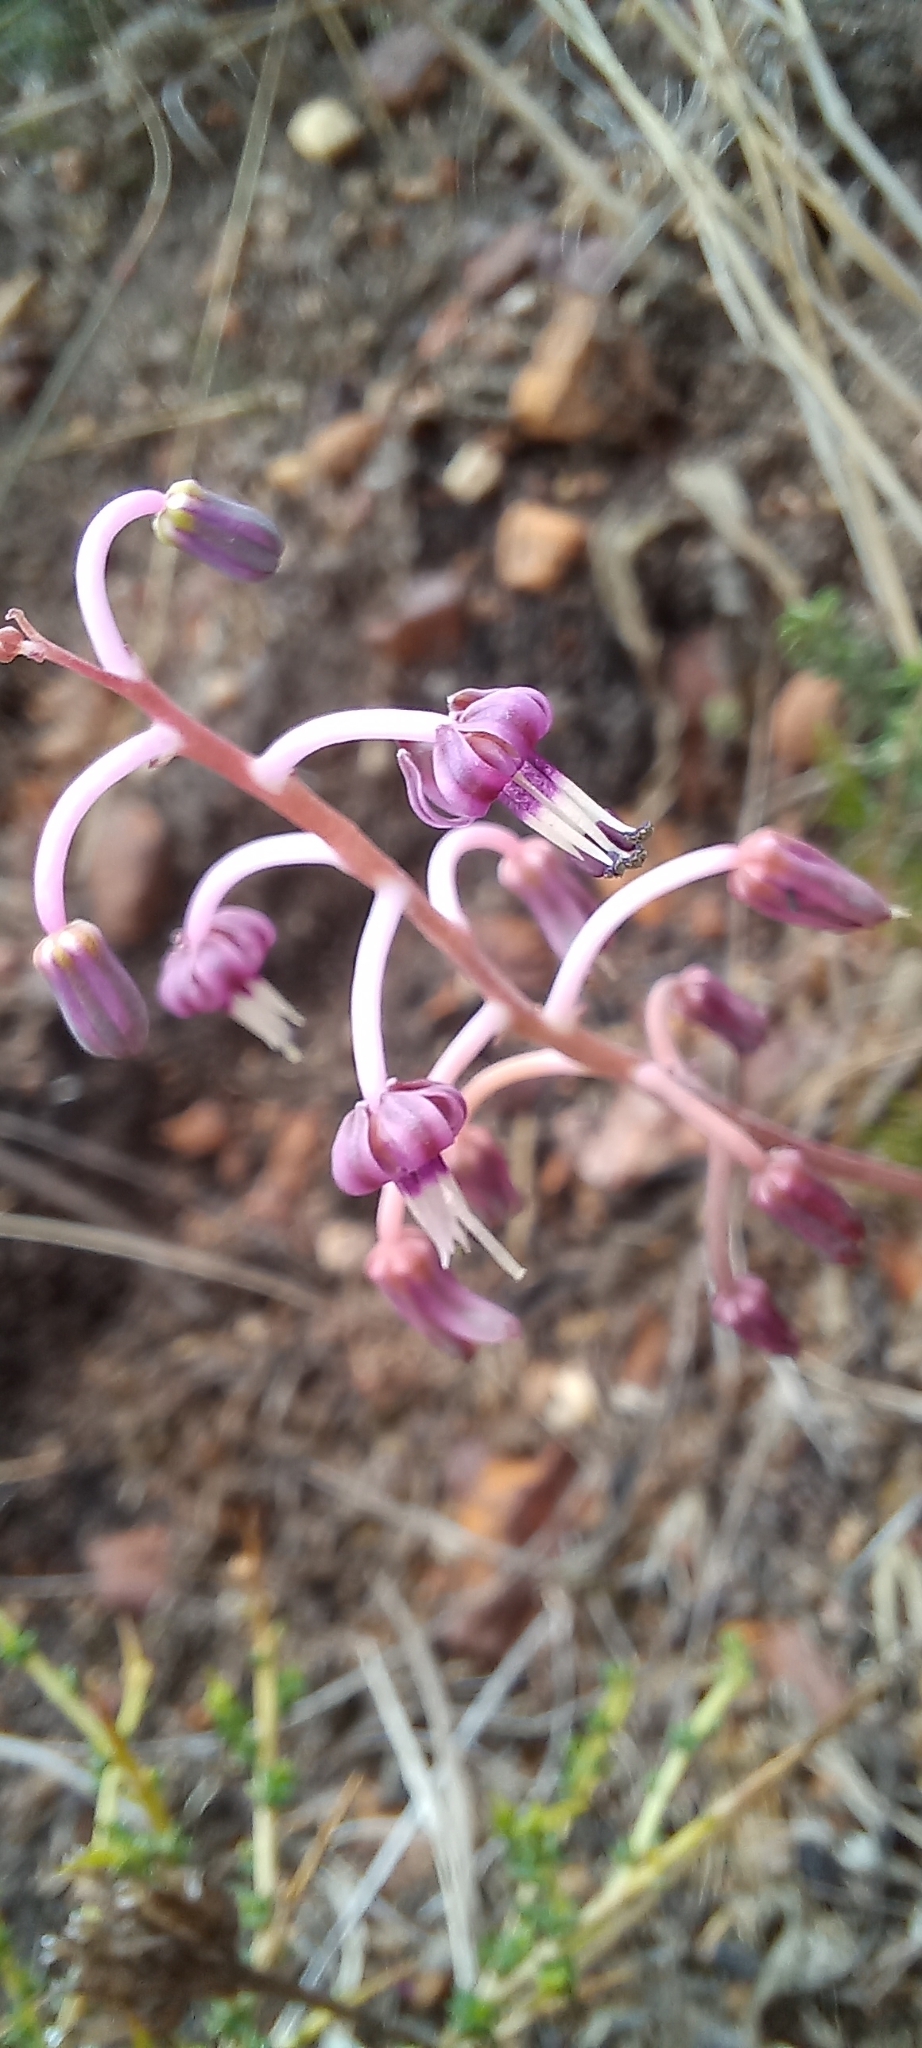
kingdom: Plantae
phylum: Tracheophyta
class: Liliopsida
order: Asparagales
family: Asparagaceae
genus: Ledebouria
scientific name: Ledebouria ovalifolia
